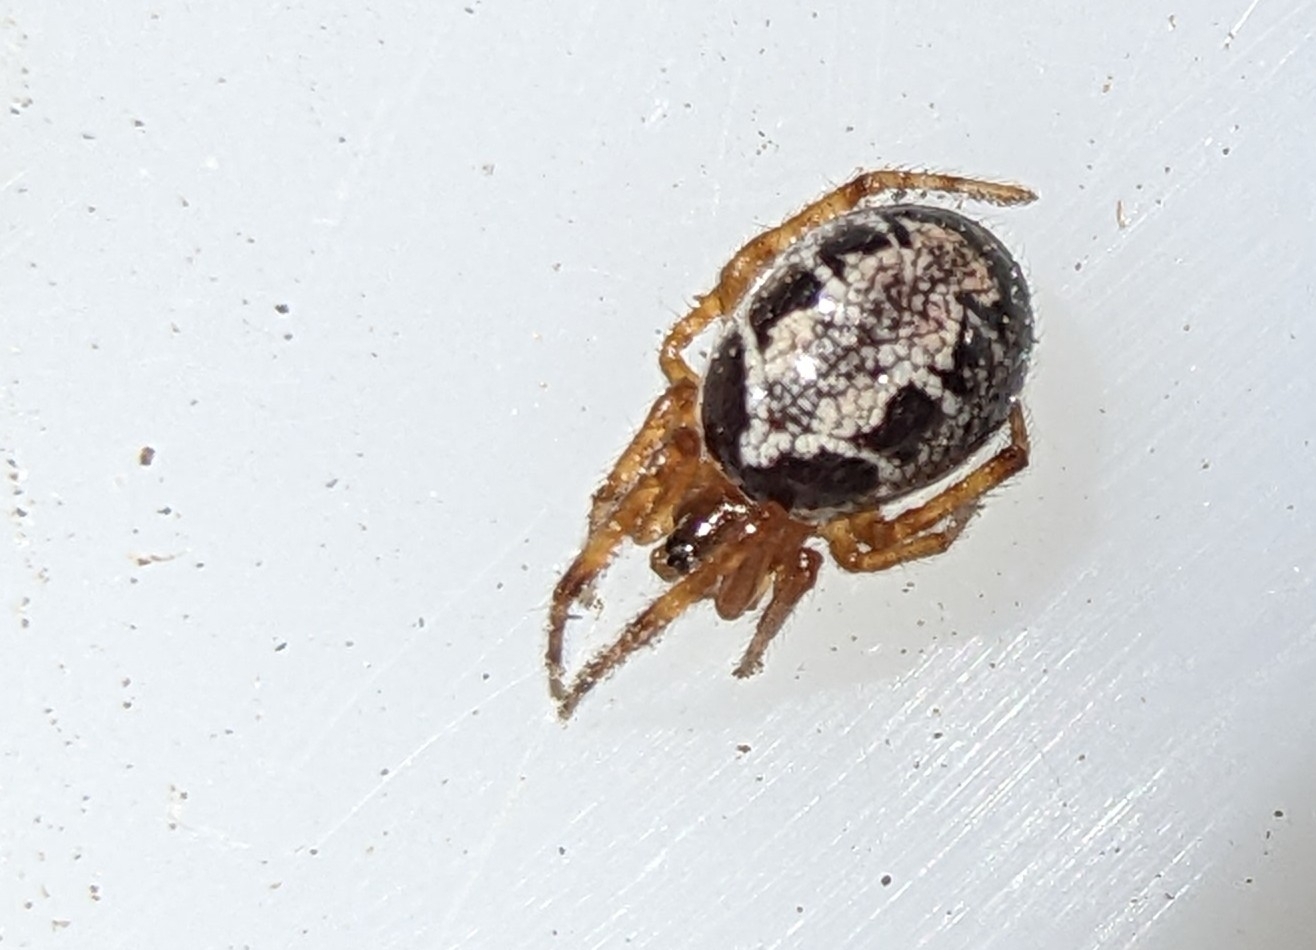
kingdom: Animalia
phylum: Arthropoda
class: Arachnida
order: Araneae
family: Theridiidae
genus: Steatoda
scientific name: Steatoda nobilis
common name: Cobweb weaver
